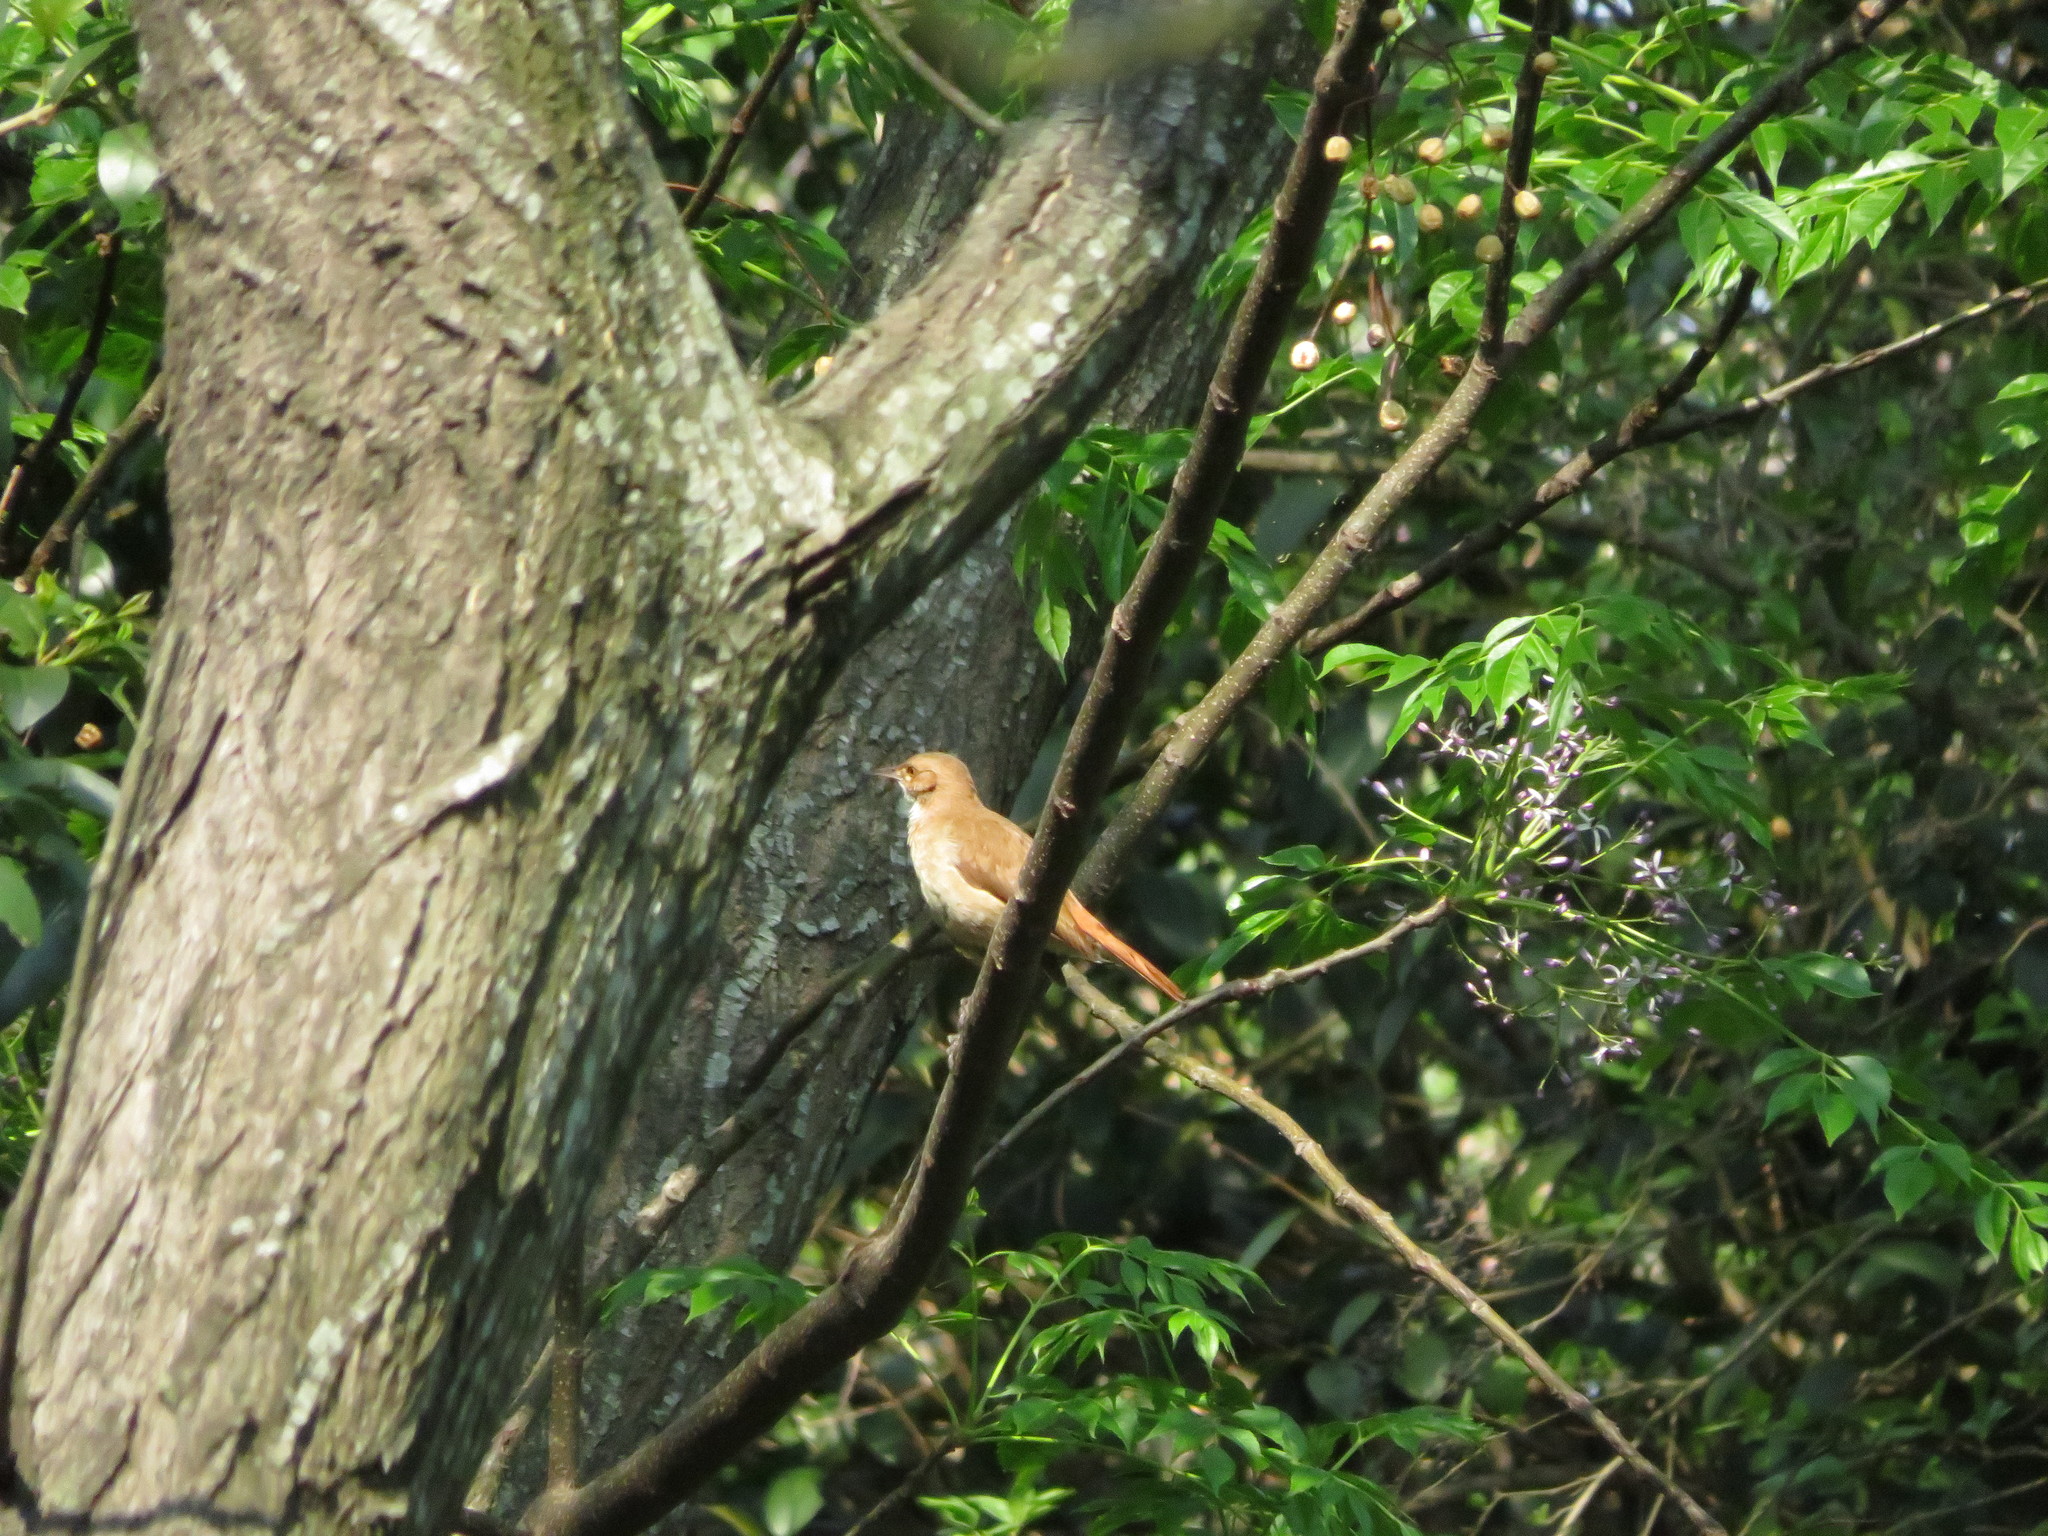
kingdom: Animalia
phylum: Chordata
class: Aves
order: Passeriformes
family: Furnariidae
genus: Furnarius
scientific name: Furnarius rufus
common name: Rufous hornero
